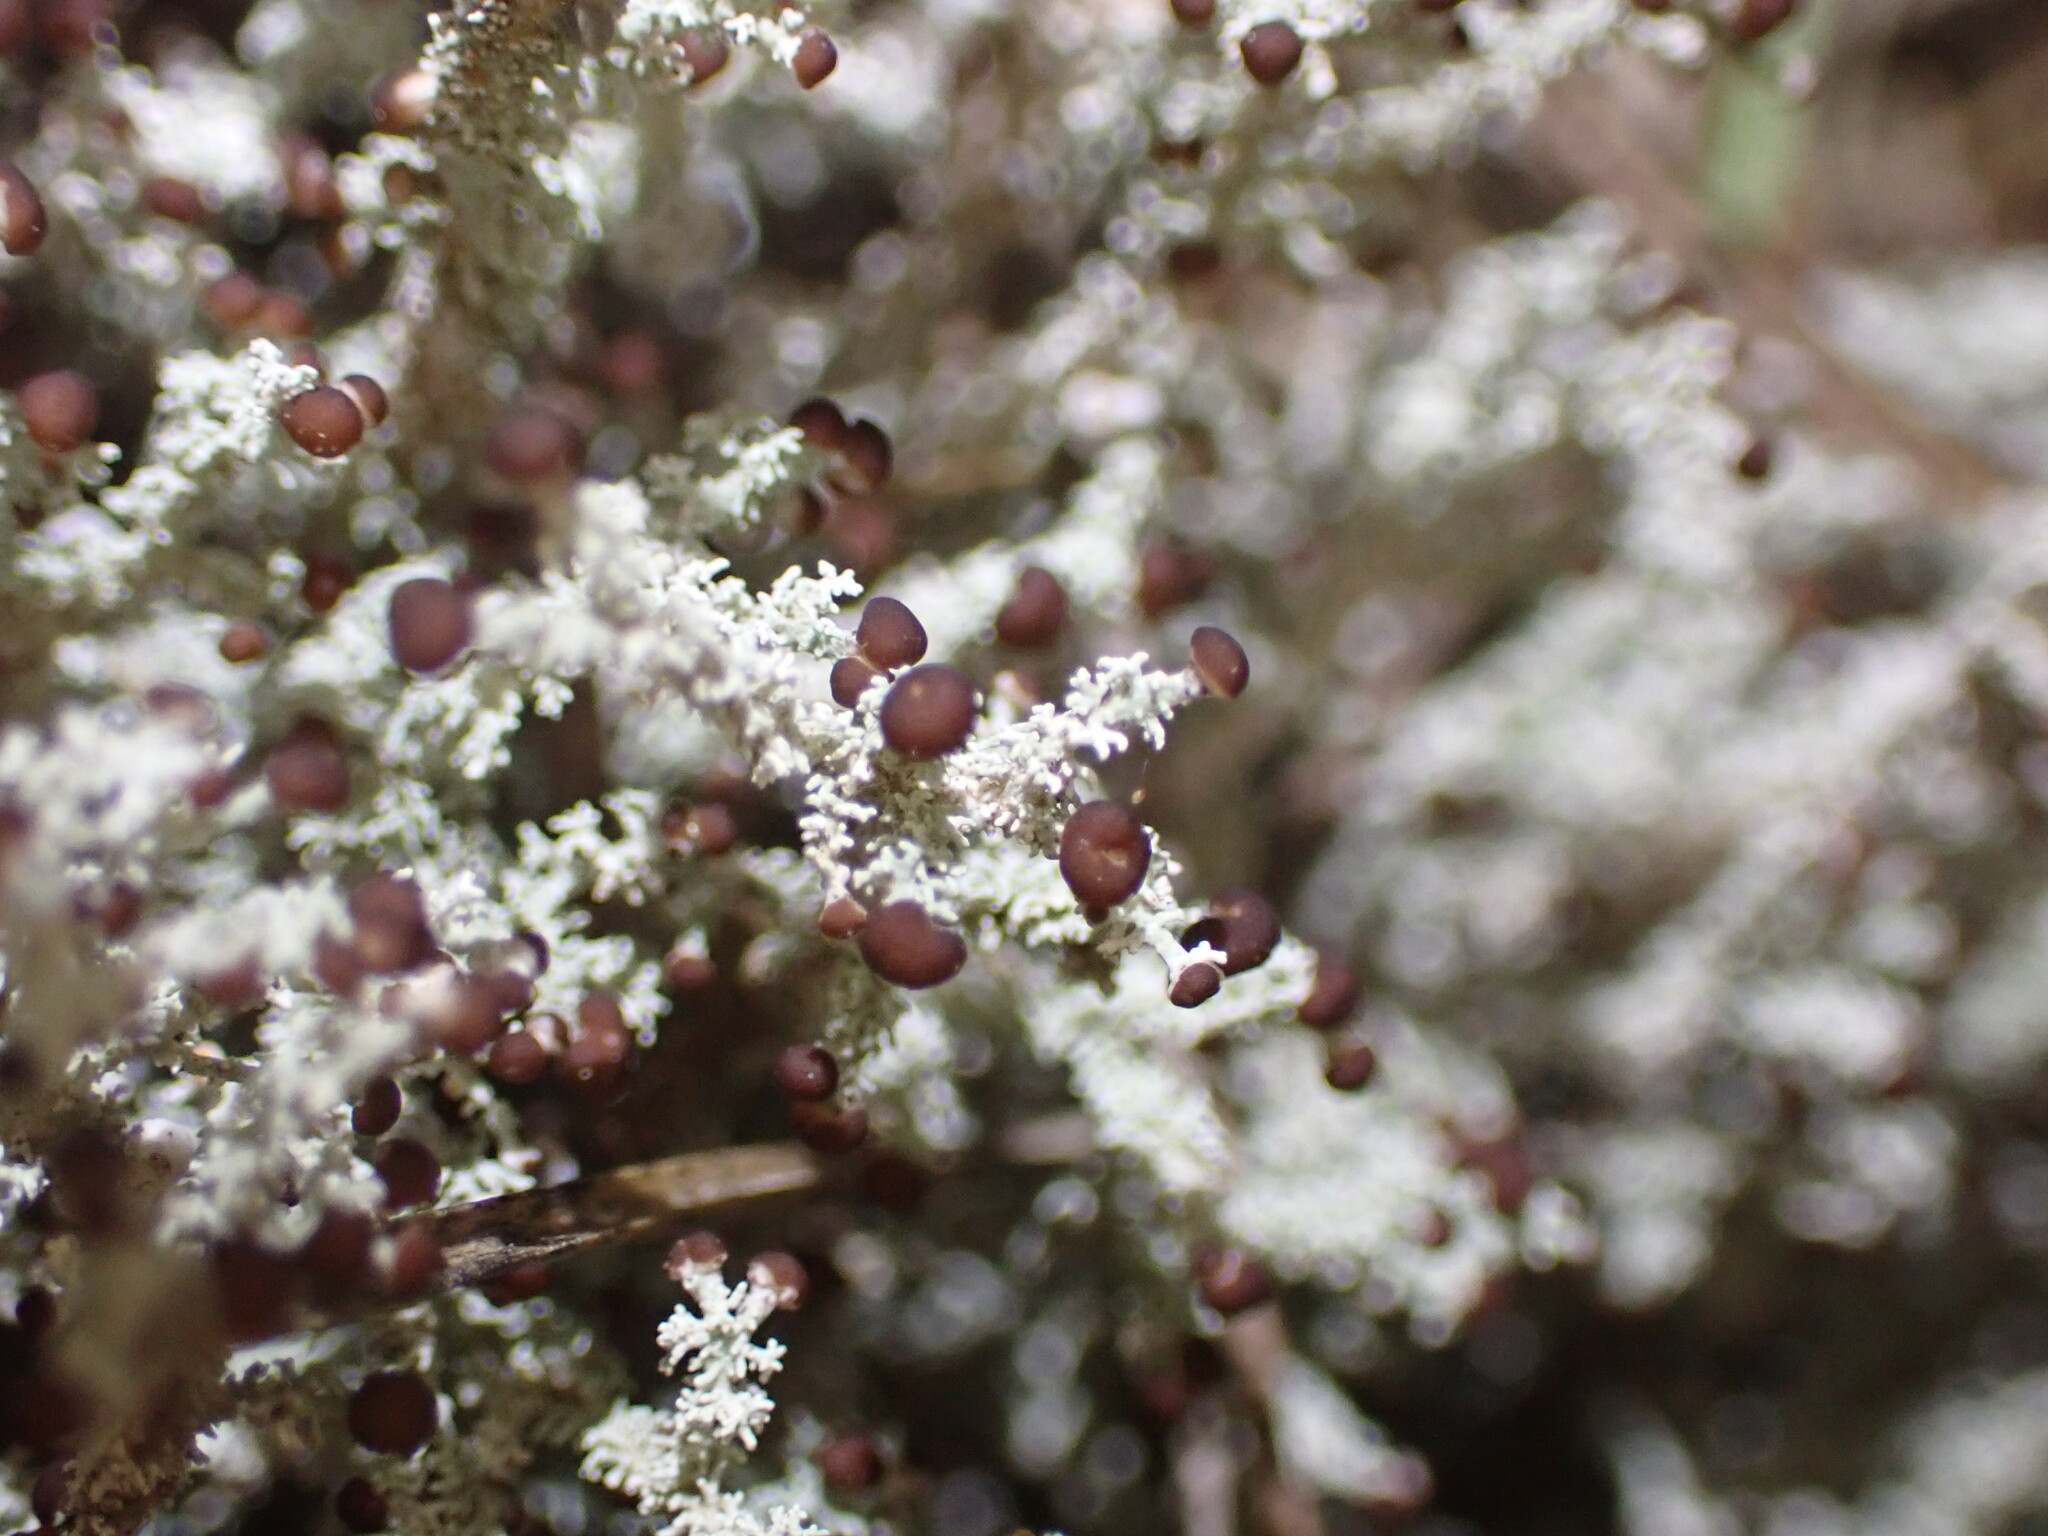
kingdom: Fungi
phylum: Ascomycota
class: Lecanoromycetes
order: Lecanorales
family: Stereocaulaceae
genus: Stereocaulon
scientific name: Stereocaulon ramulosum
